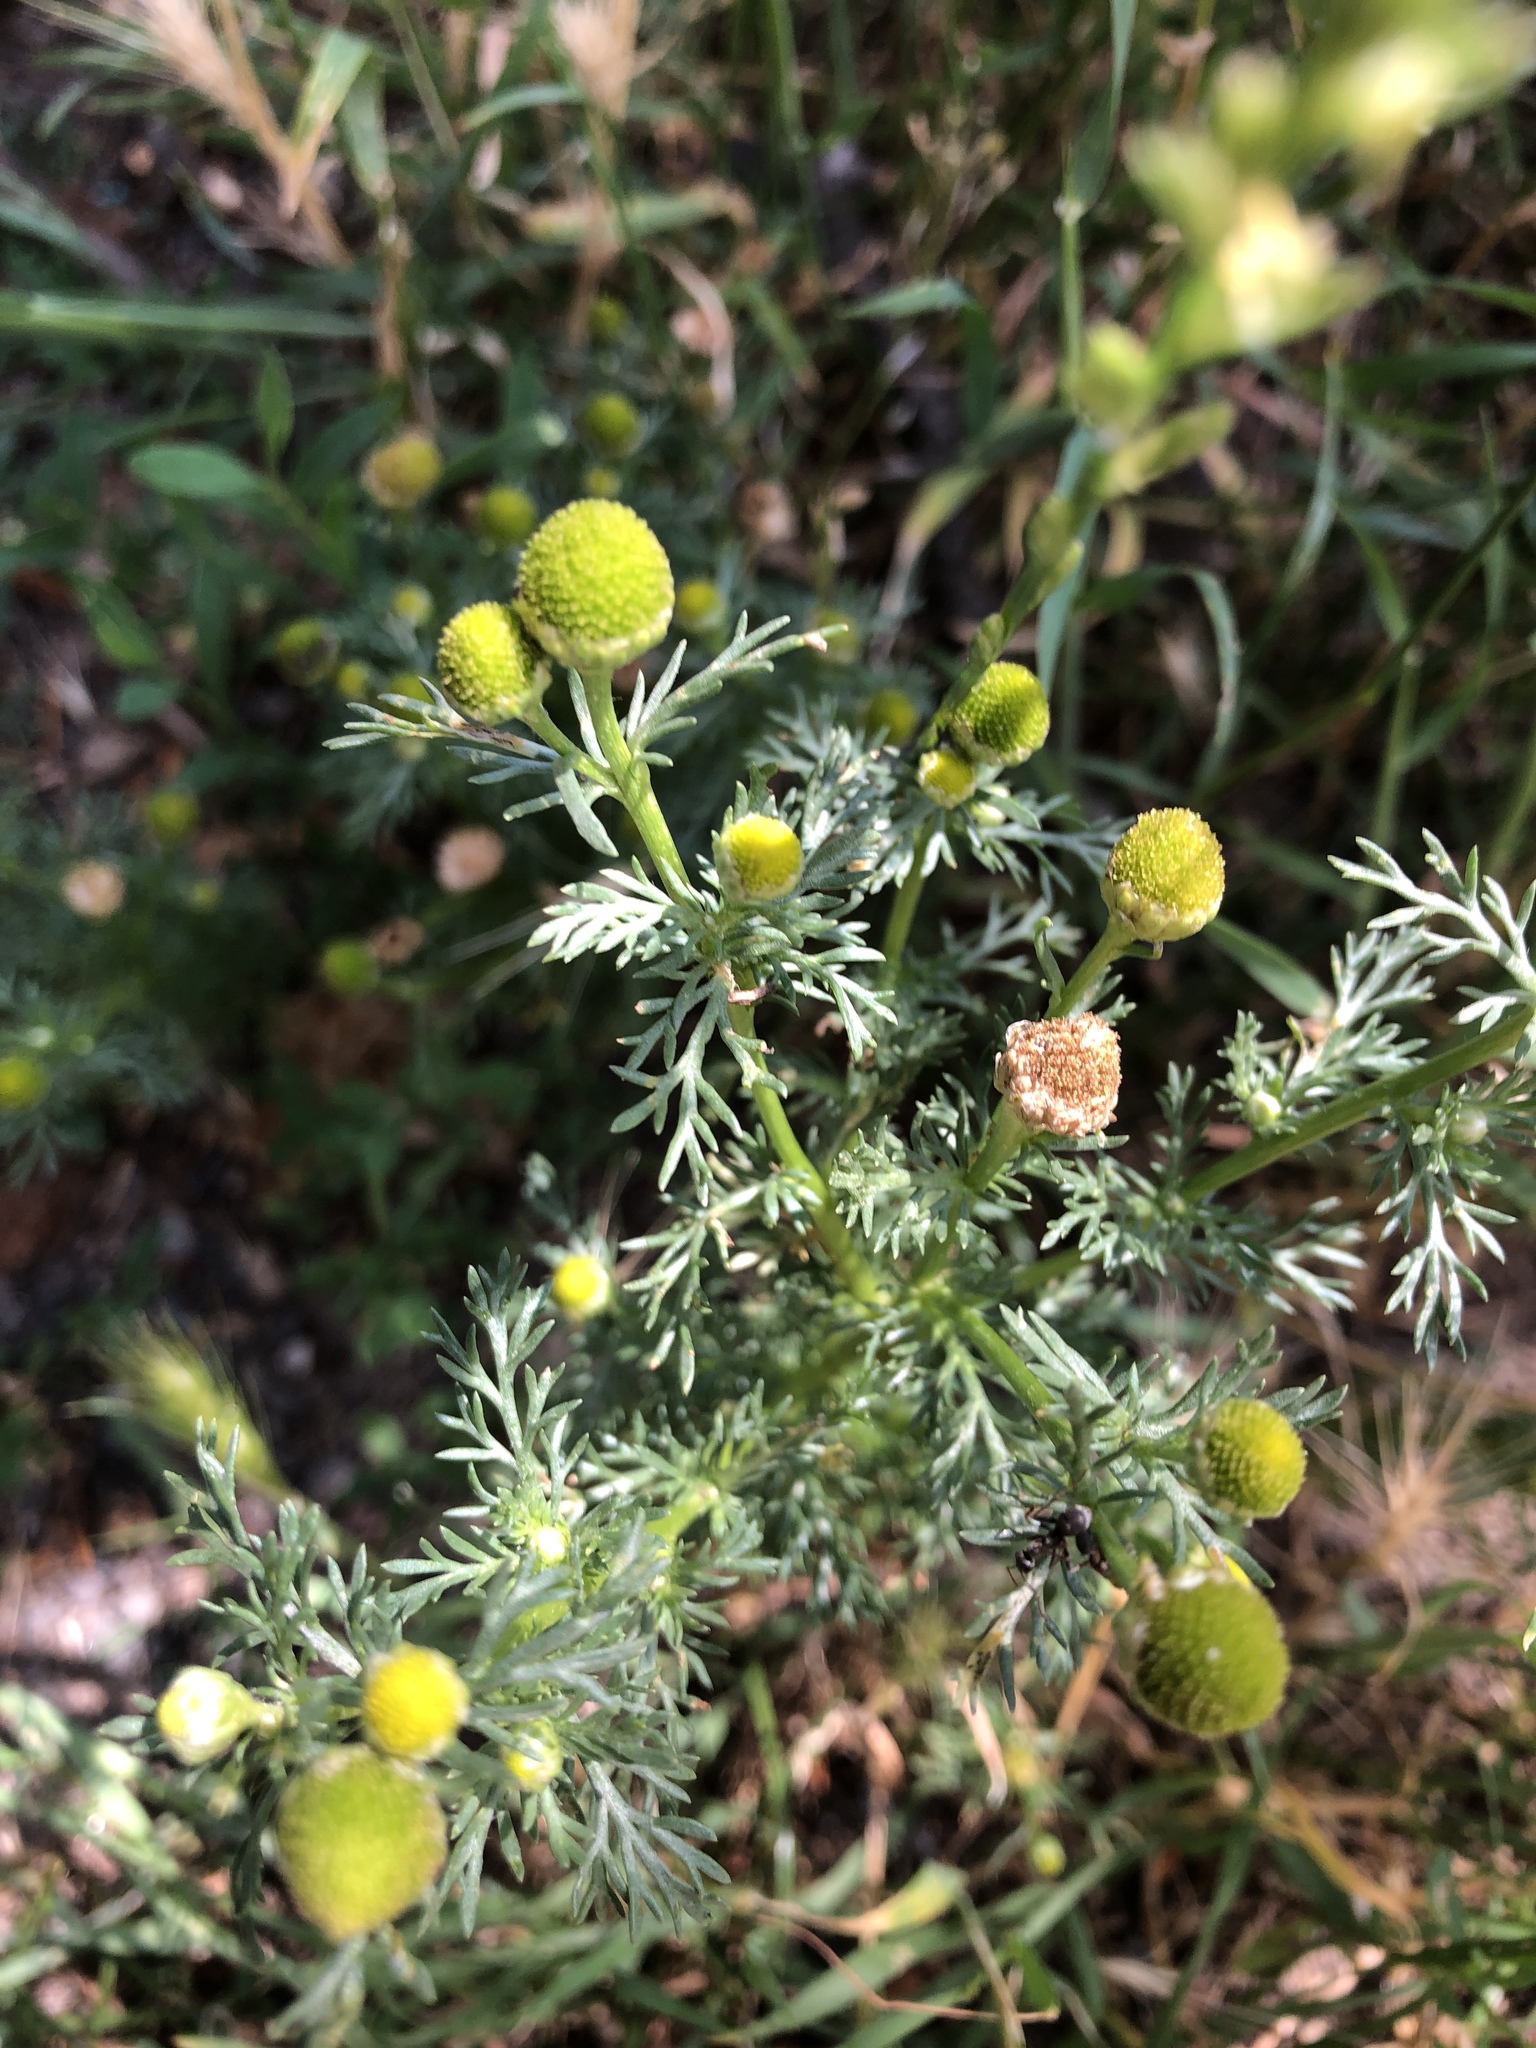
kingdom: Plantae
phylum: Tracheophyta
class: Magnoliopsida
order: Asterales
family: Asteraceae
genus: Matricaria
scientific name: Matricaria discoidea
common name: Disc mayweed
